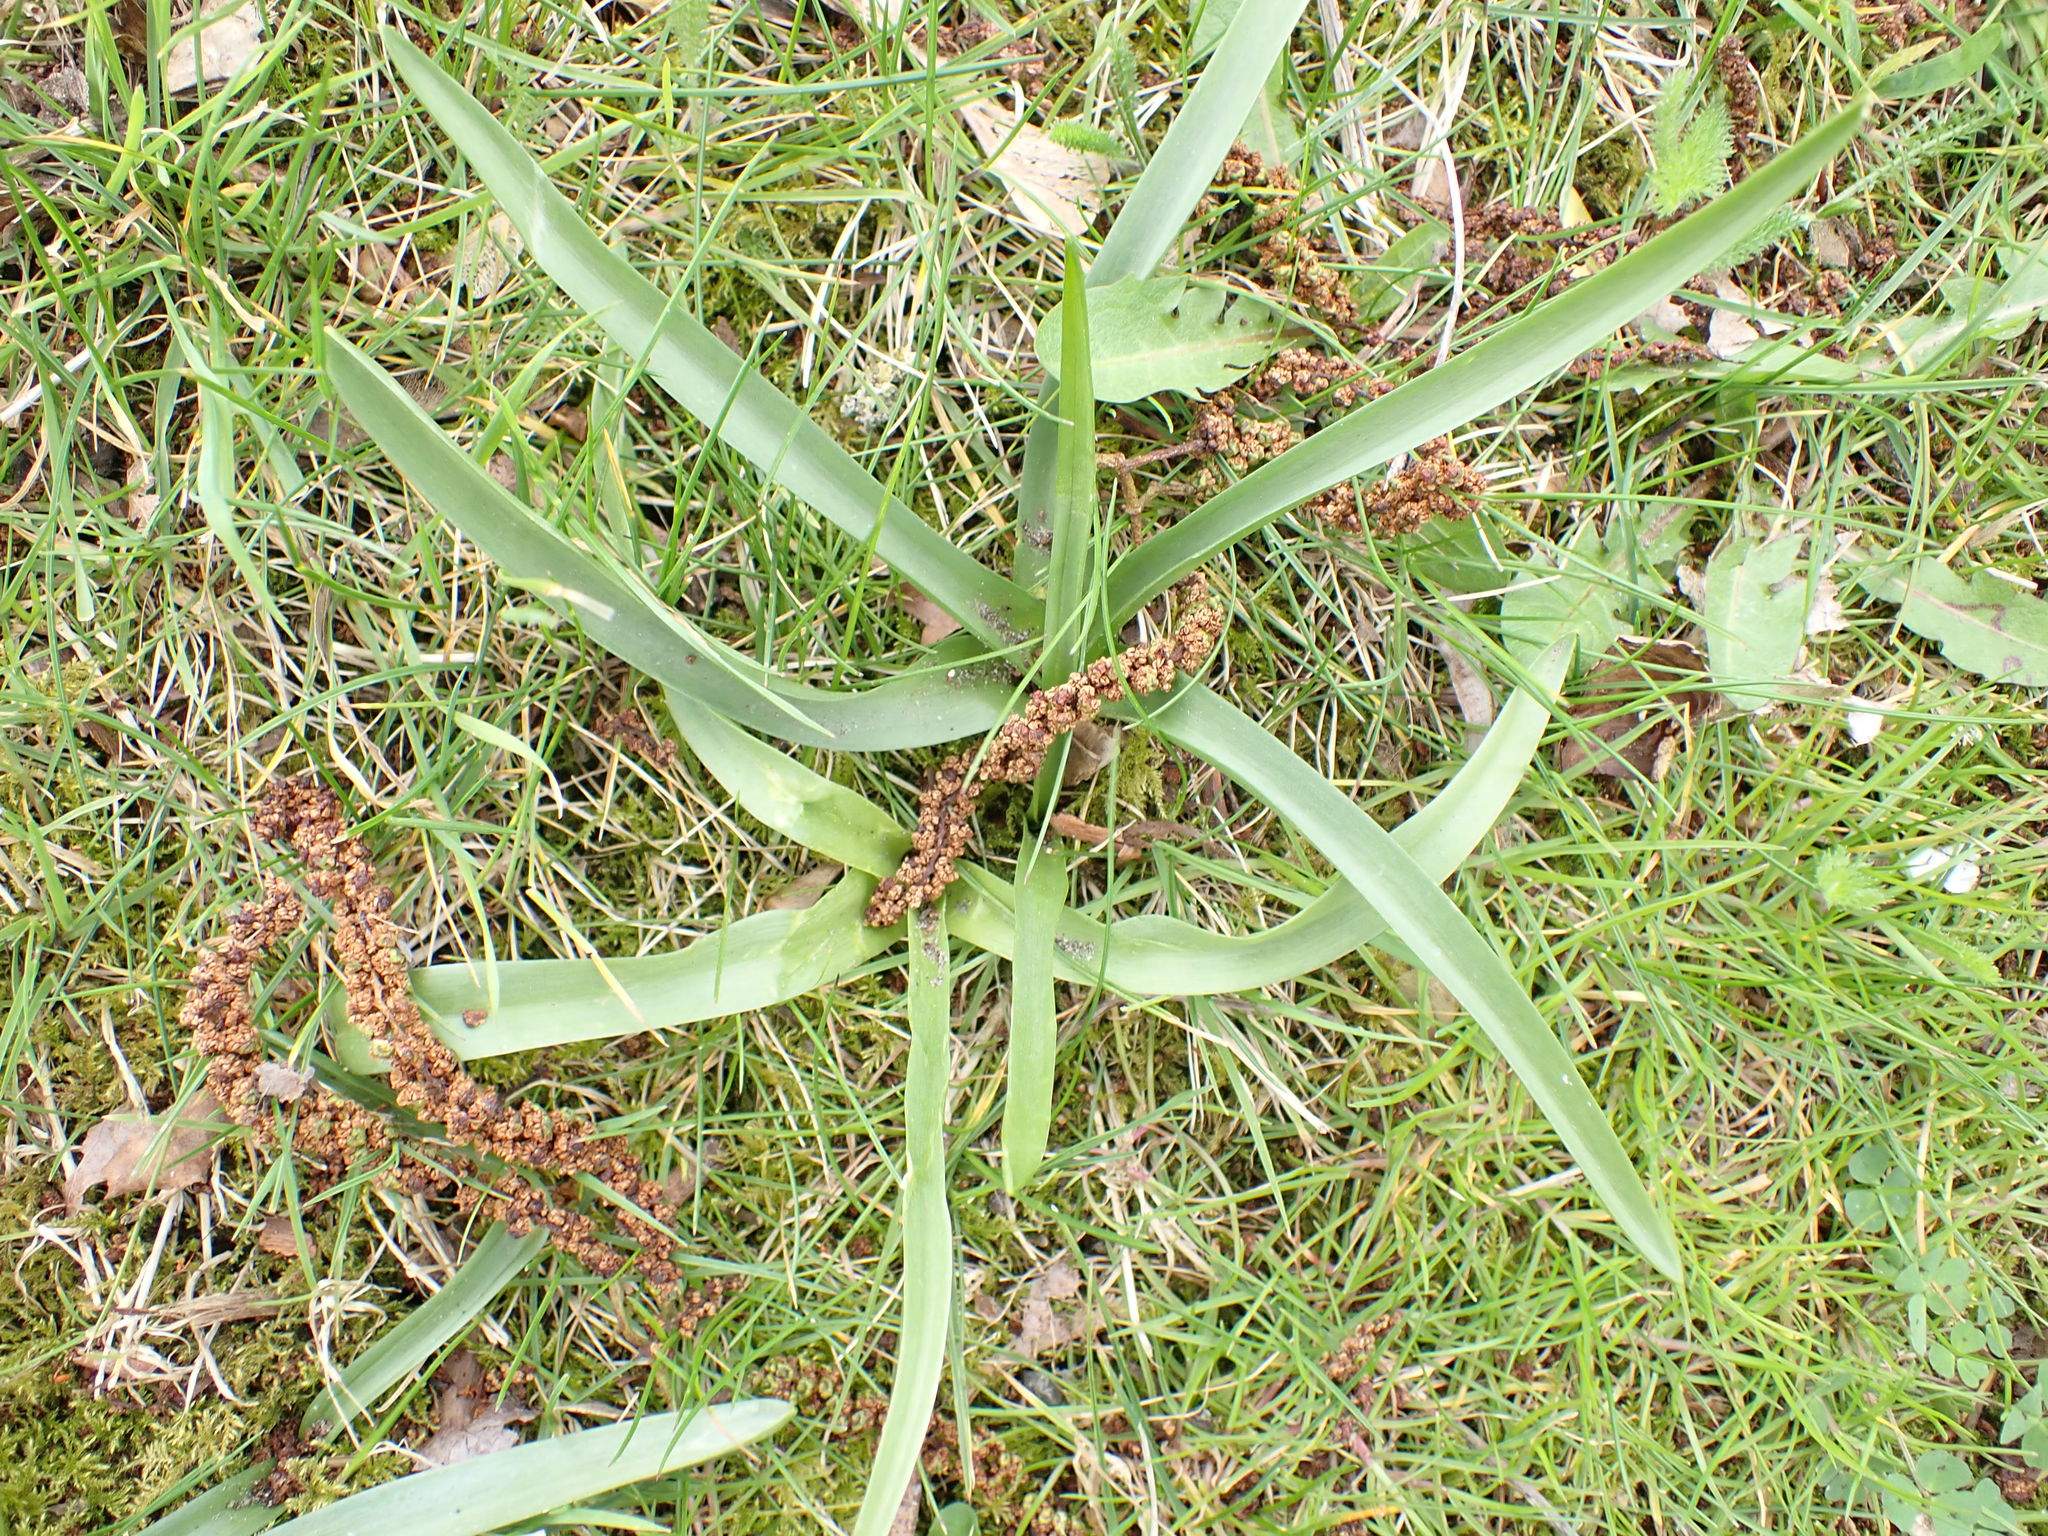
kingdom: Plantae
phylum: Tracheophyta
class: Liliopsida
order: Asparagales
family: Orchidaceae
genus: Anacamptis
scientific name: Anacamptis pyramidalis
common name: Pyramidal orchid
